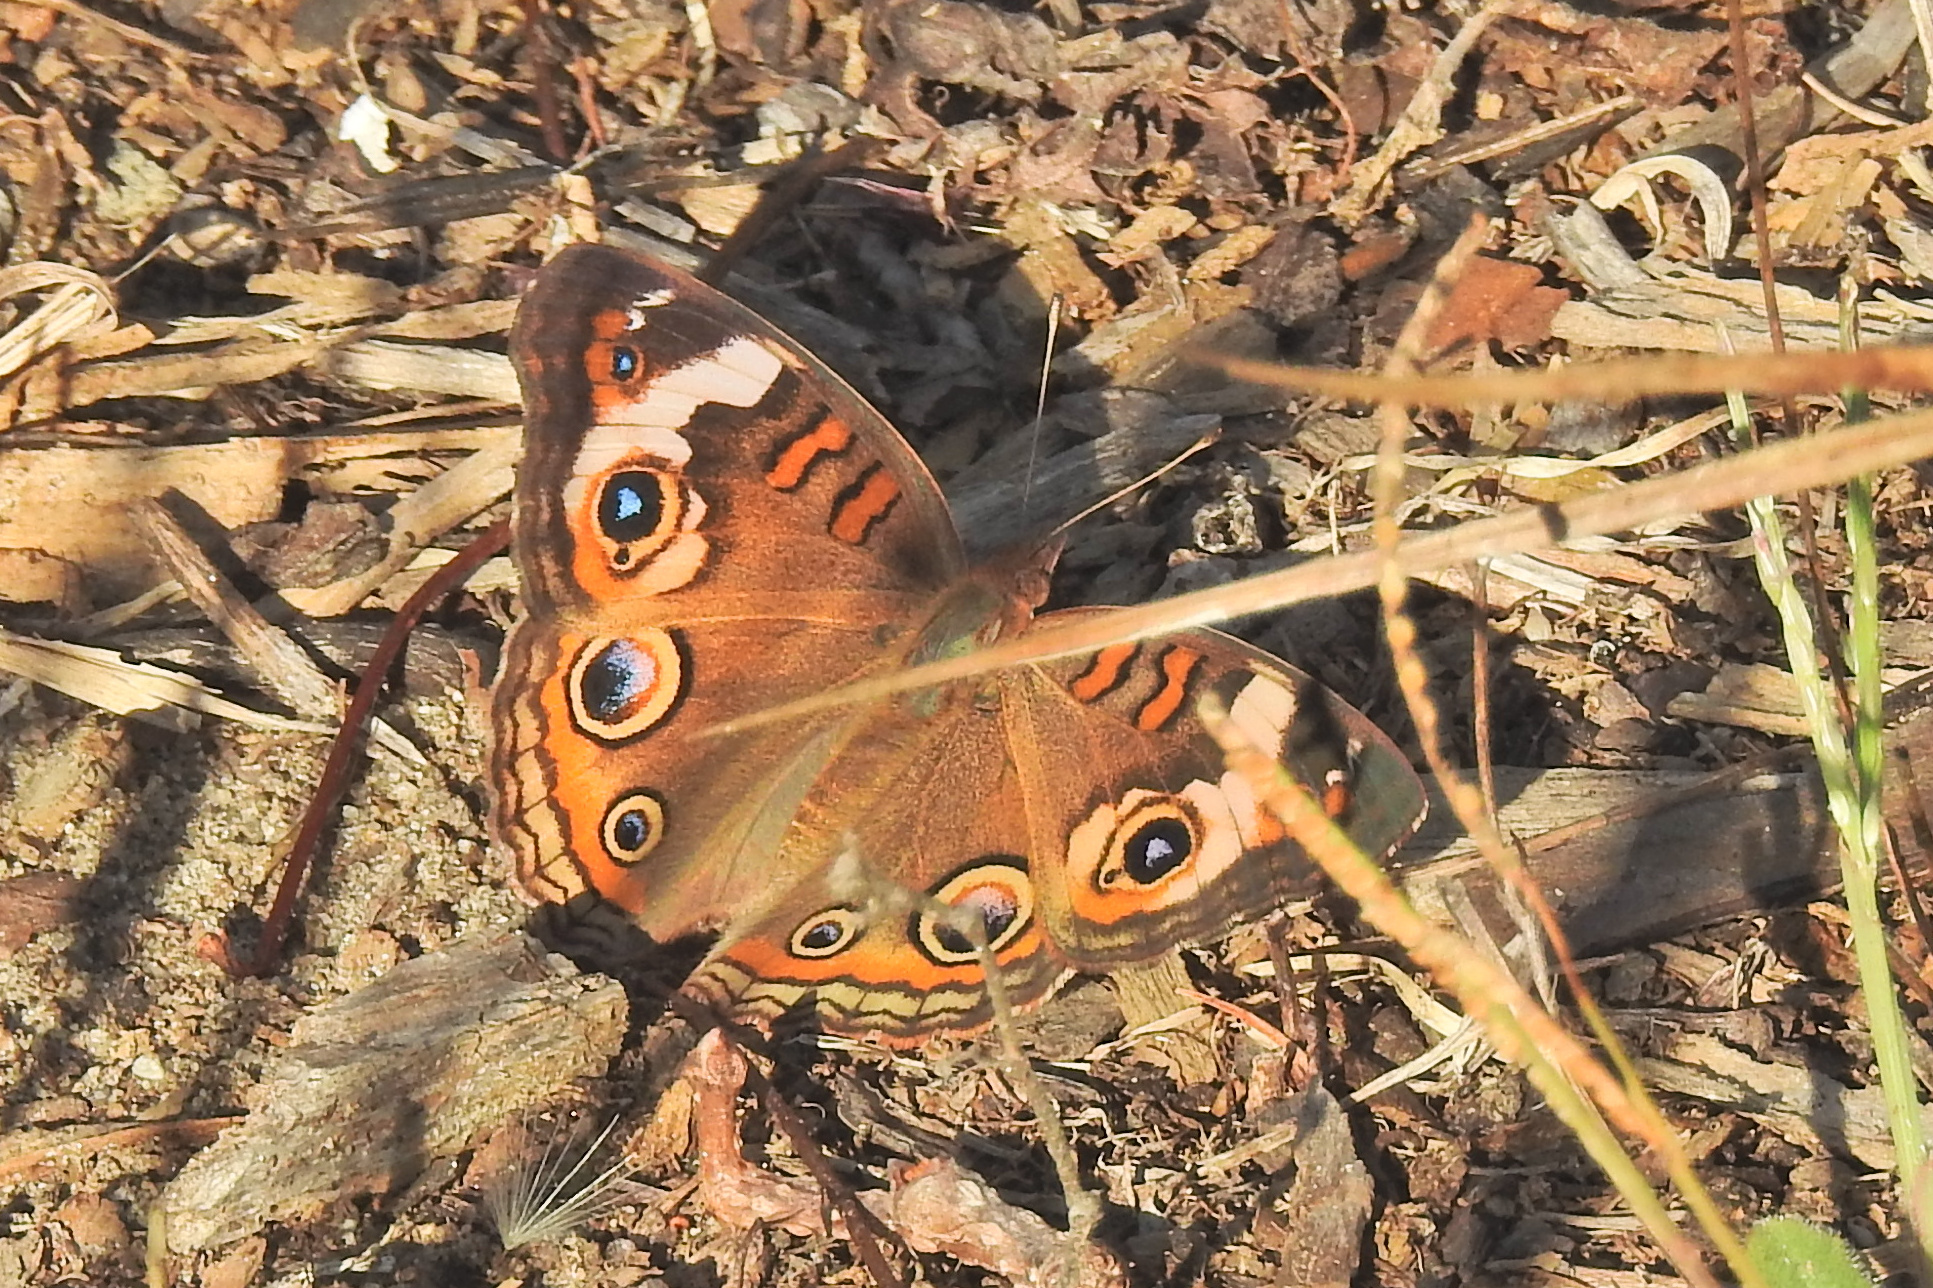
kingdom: Animalia
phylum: Arthropoda
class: Insecta
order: Lepidoptera
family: Nymphalidae
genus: Junonia
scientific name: Junonia coenia
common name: Common buckeye
